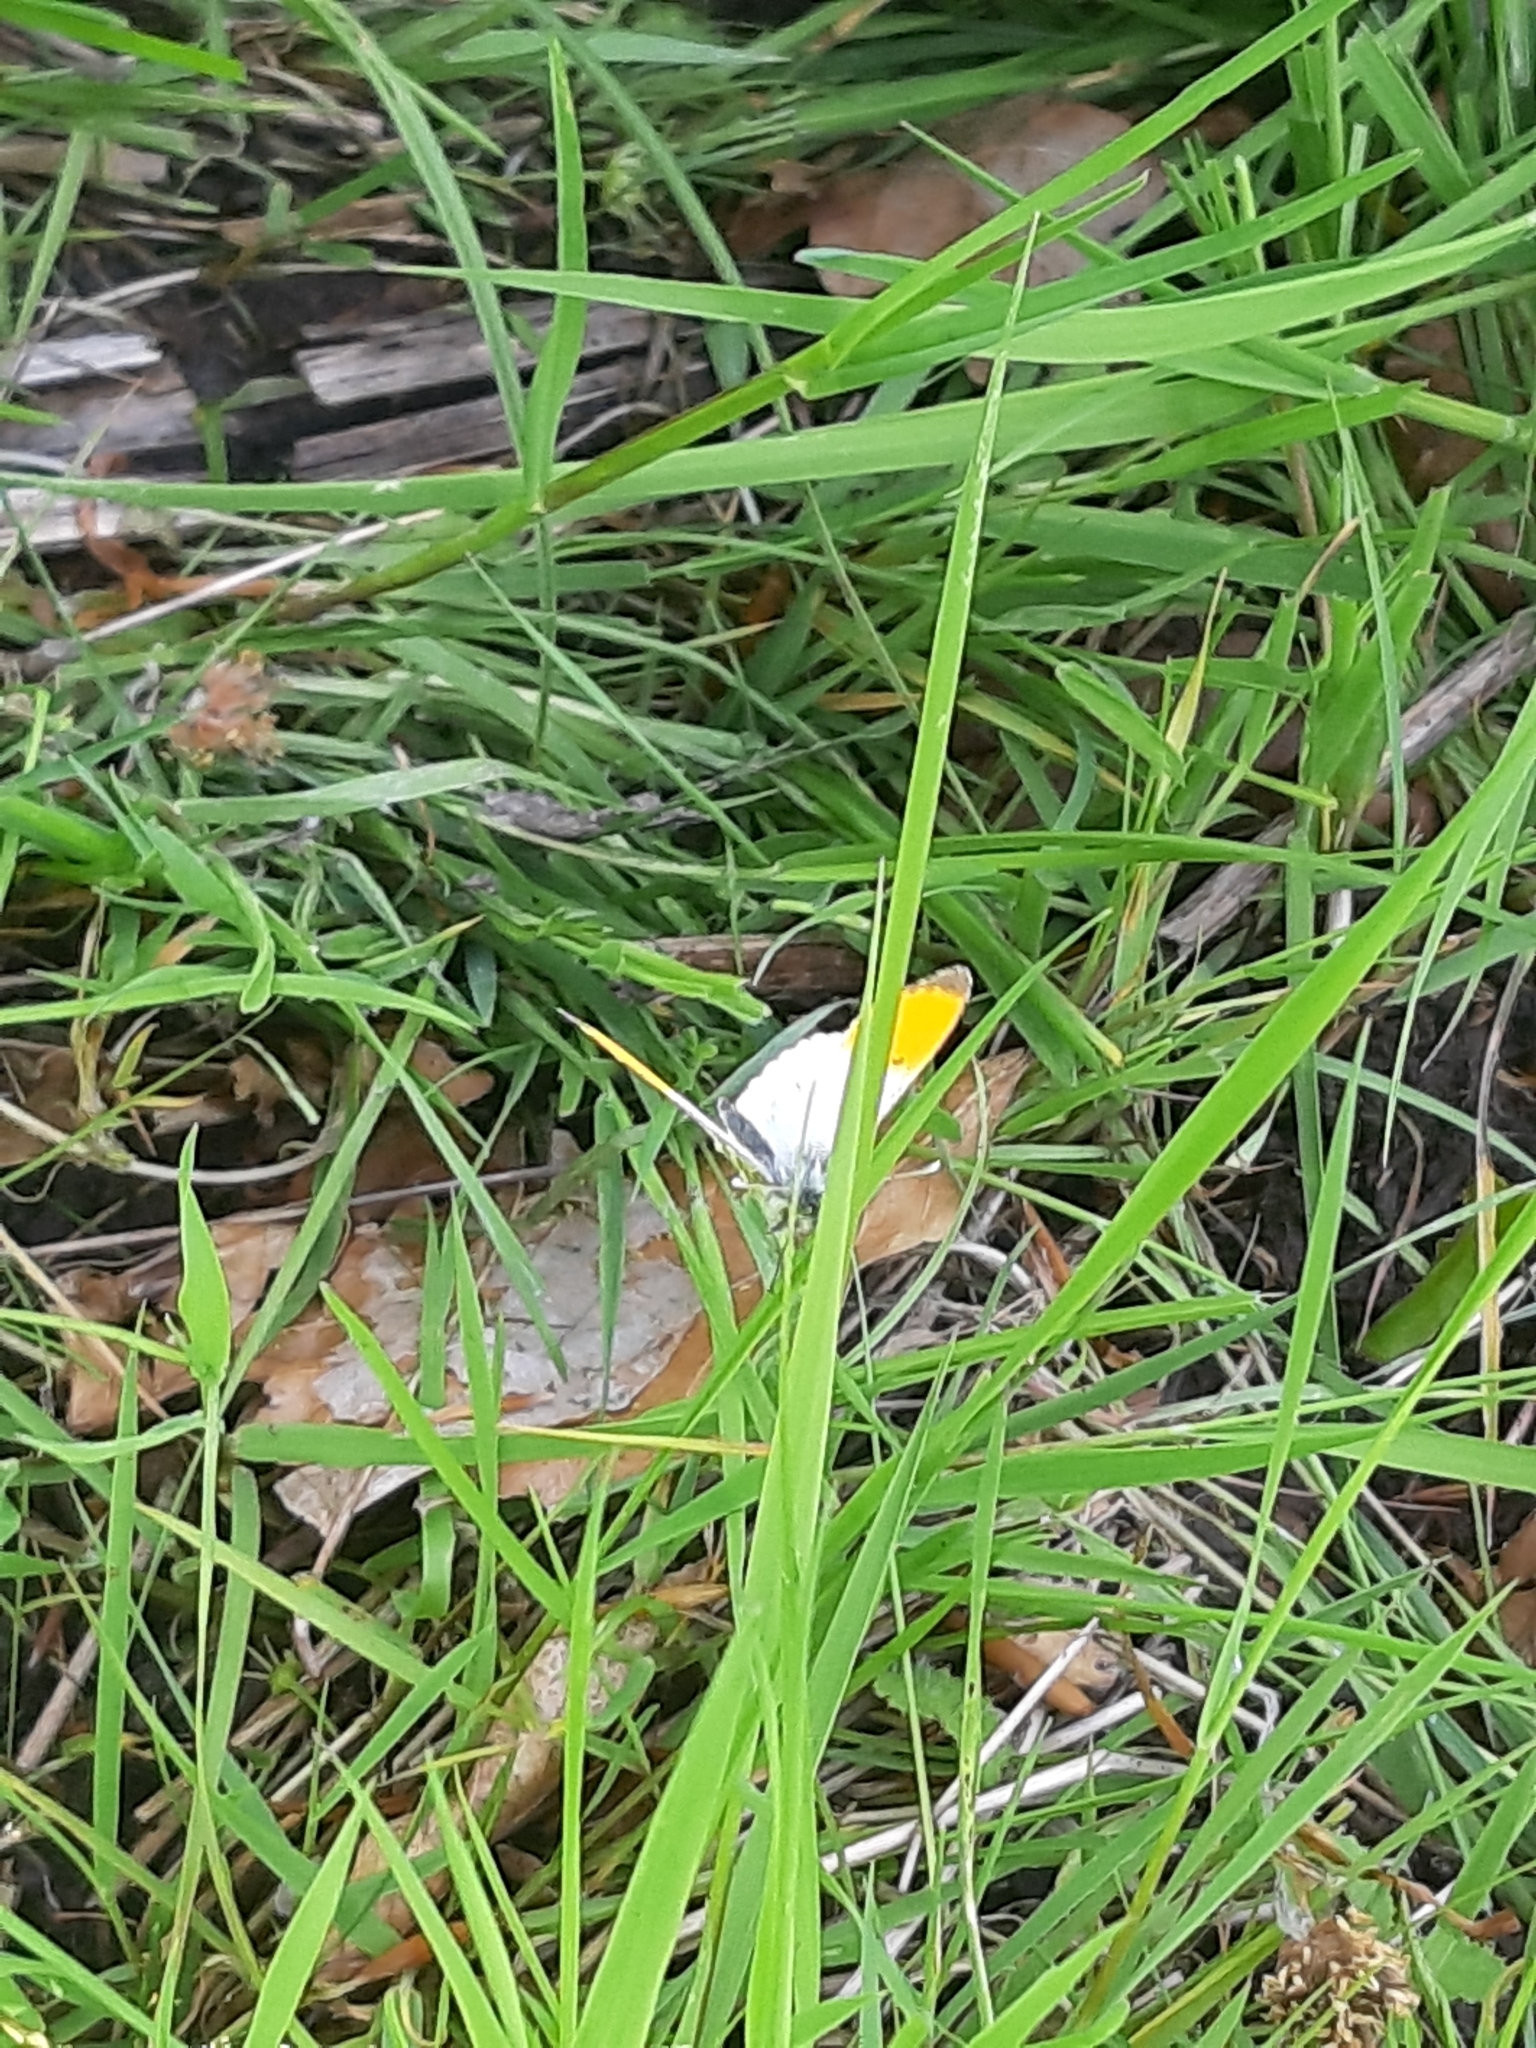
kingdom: Animalia
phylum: Arthropoda
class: Insecta
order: Lepidoptera
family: Pieridae
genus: Anthocharis
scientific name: Anthocharis cardamines
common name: Orange-tip
